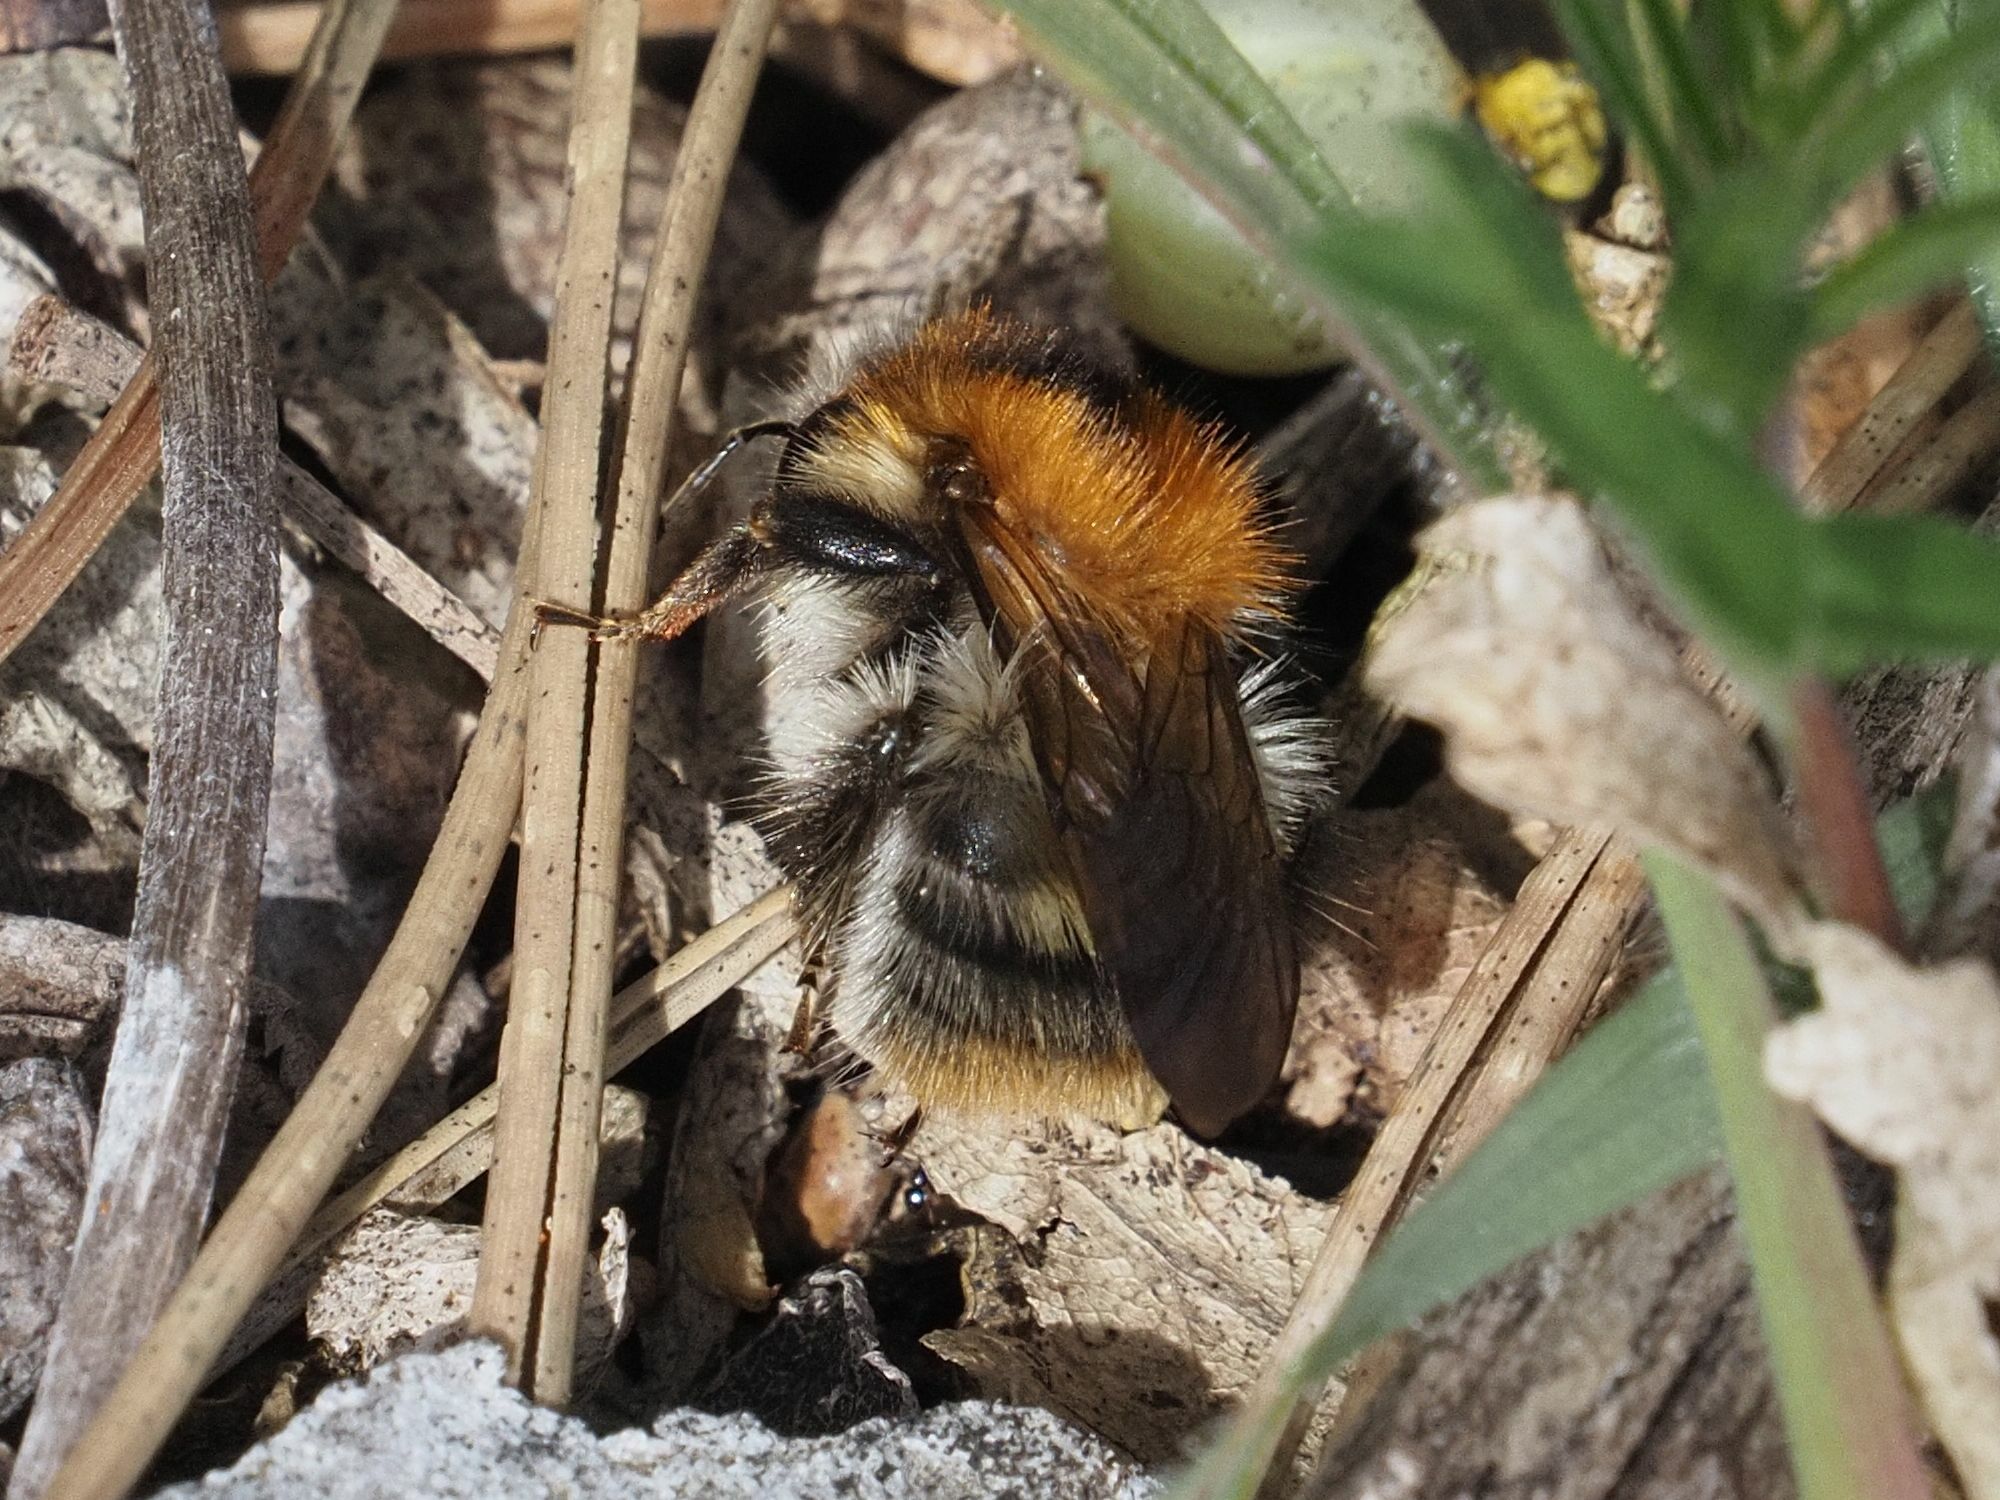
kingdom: Animalia
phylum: Arthropoda
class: Insecta
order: Hymenoptera
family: Apidae
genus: Bombus
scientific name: Bombus pascuorum
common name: Common carder bee
